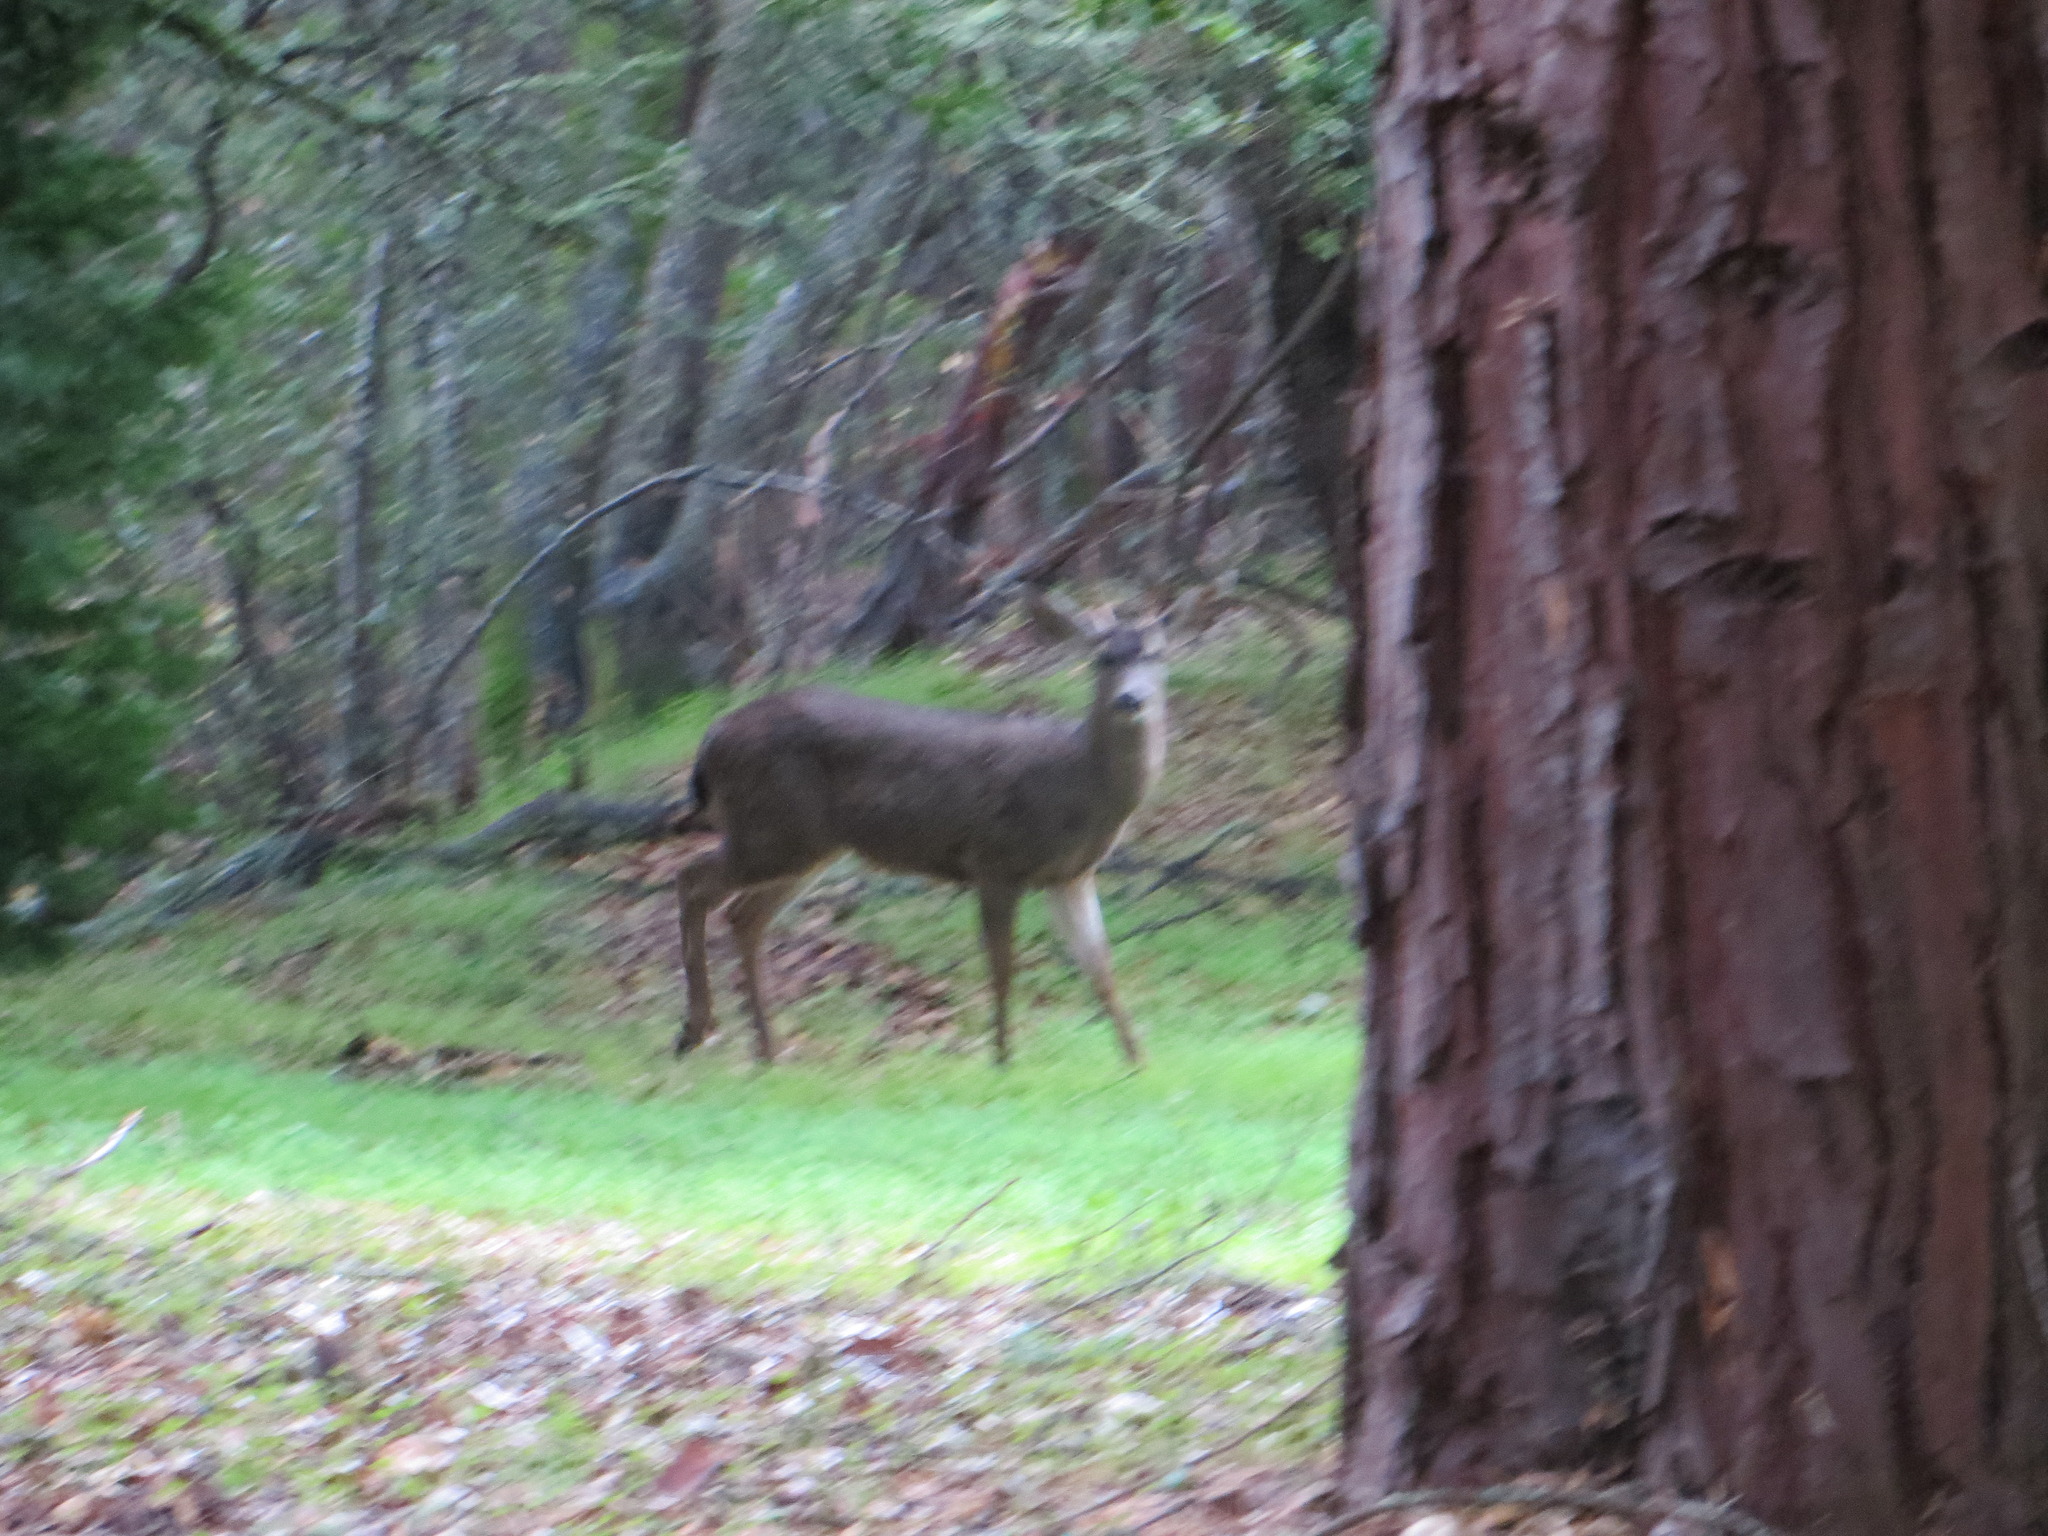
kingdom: Animalia
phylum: Chordata
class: Mammalia
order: Artiodactyla
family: Cervidae
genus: Odocoileus
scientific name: Odocoileus hemionus
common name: Mule deer
